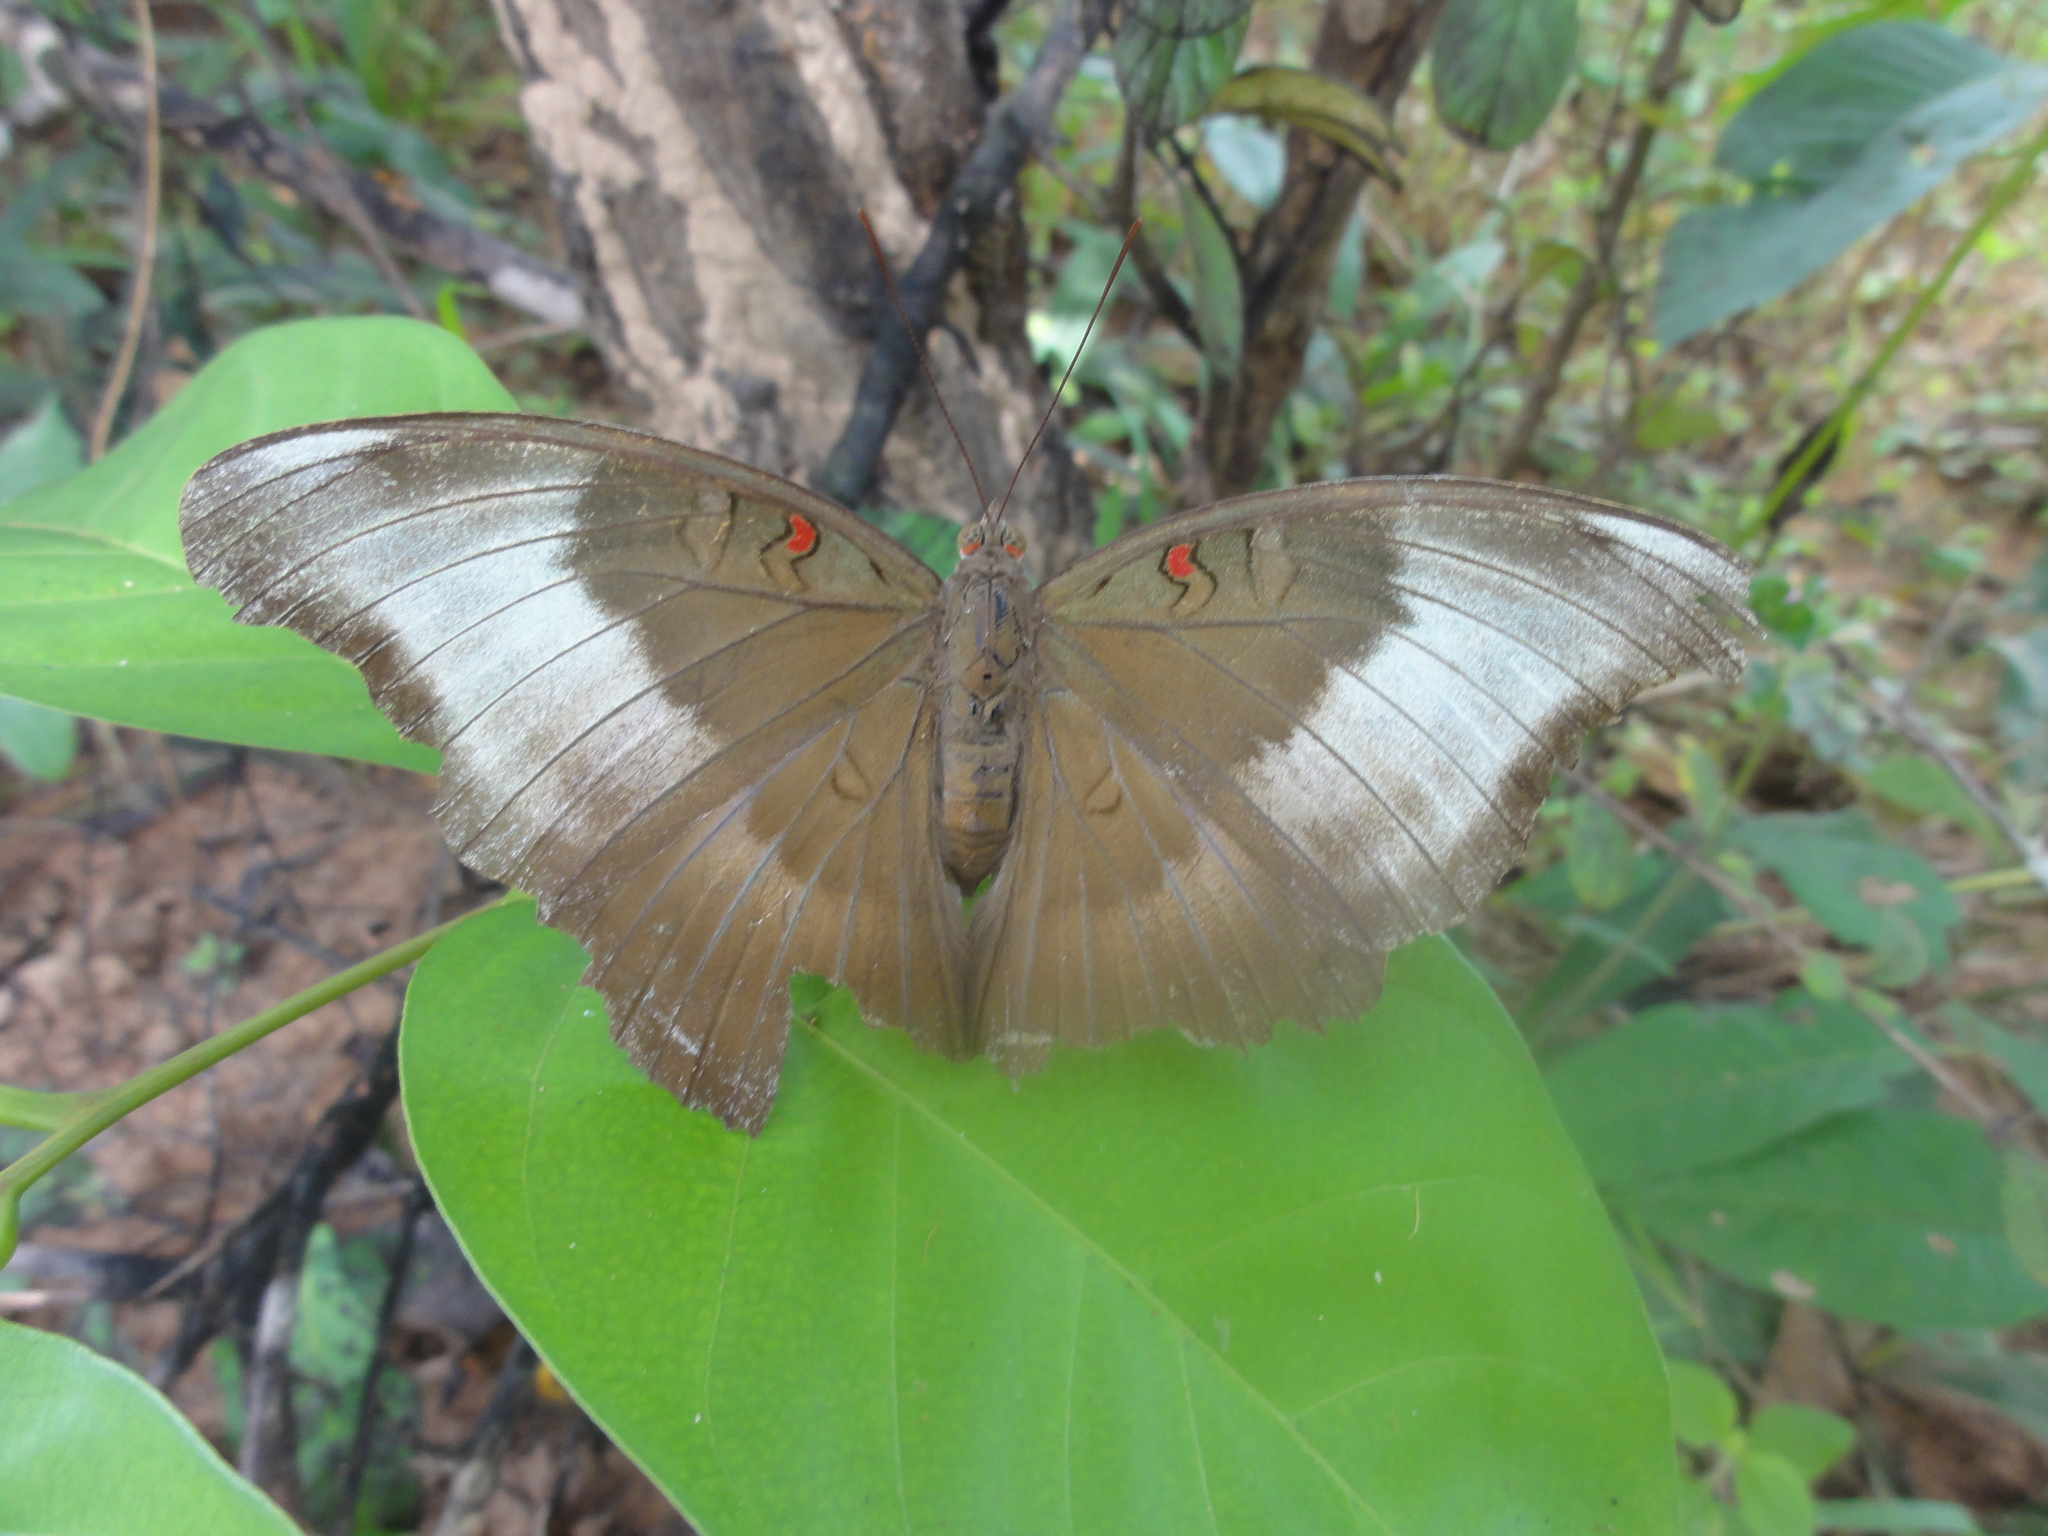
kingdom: Animalia
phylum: Arthropoda
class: Insecta
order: Lepidoptera
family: Nymphalidae
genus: Euthalia
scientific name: Euthalia Dophla evelina
